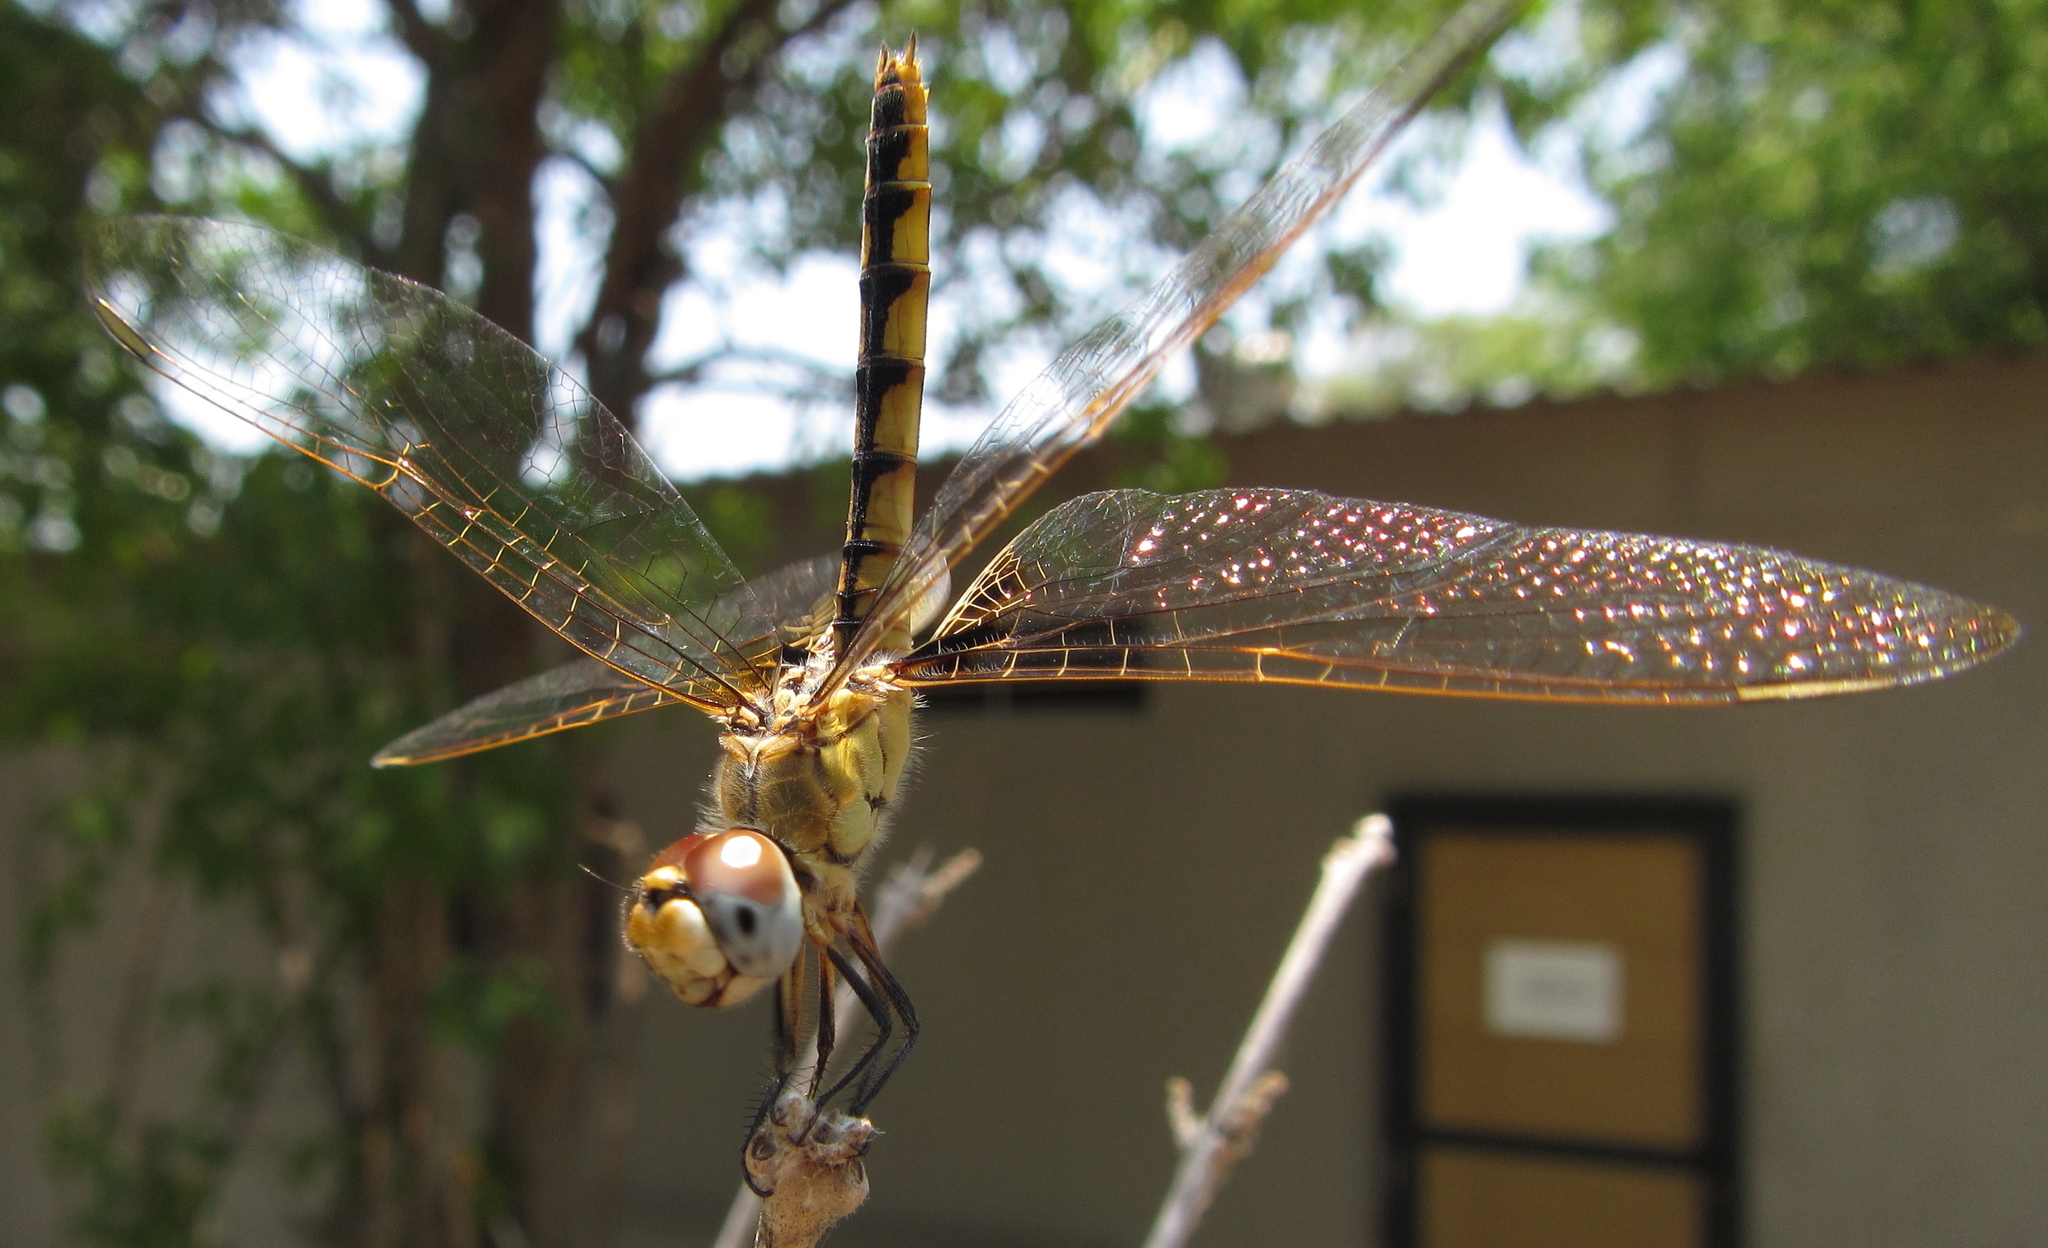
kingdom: Animalia
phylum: Arthropoda
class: Insecta
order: Odonata
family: Libellulidae
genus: Urothemis
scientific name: Urothemis edwardsii
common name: Blue basker
